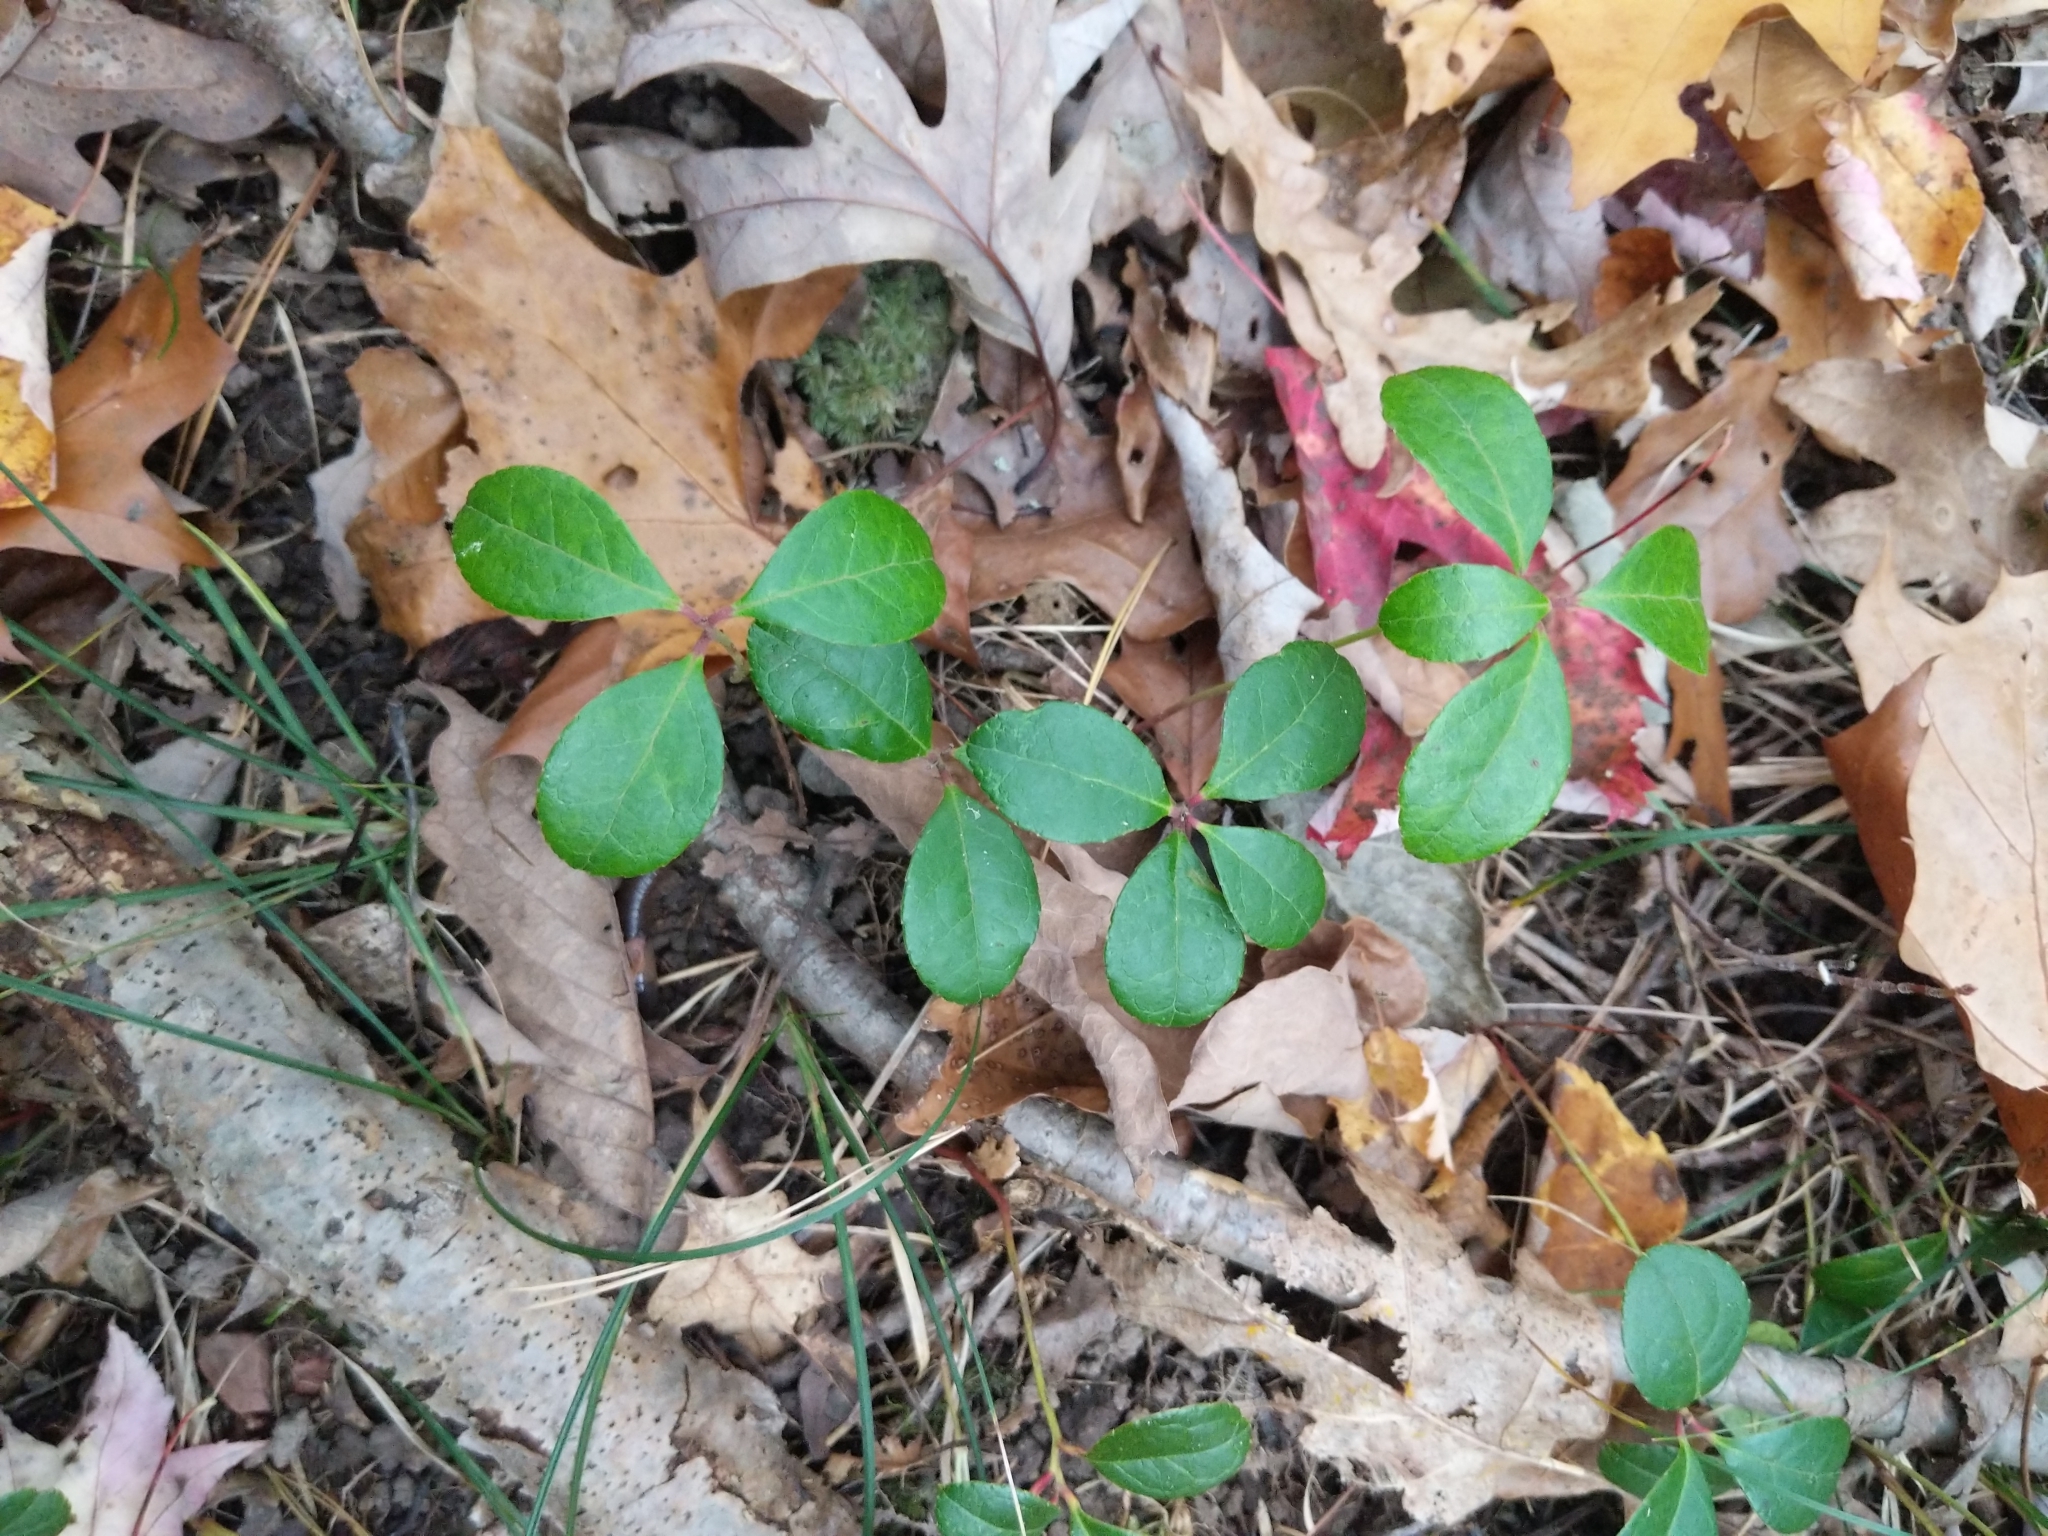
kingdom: Plantae
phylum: Tracheophyta
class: Magnoliopsida
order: Ericales
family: Ericaceae
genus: Gaultheria
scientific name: Gaultheria procumbens
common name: Checkerberry
